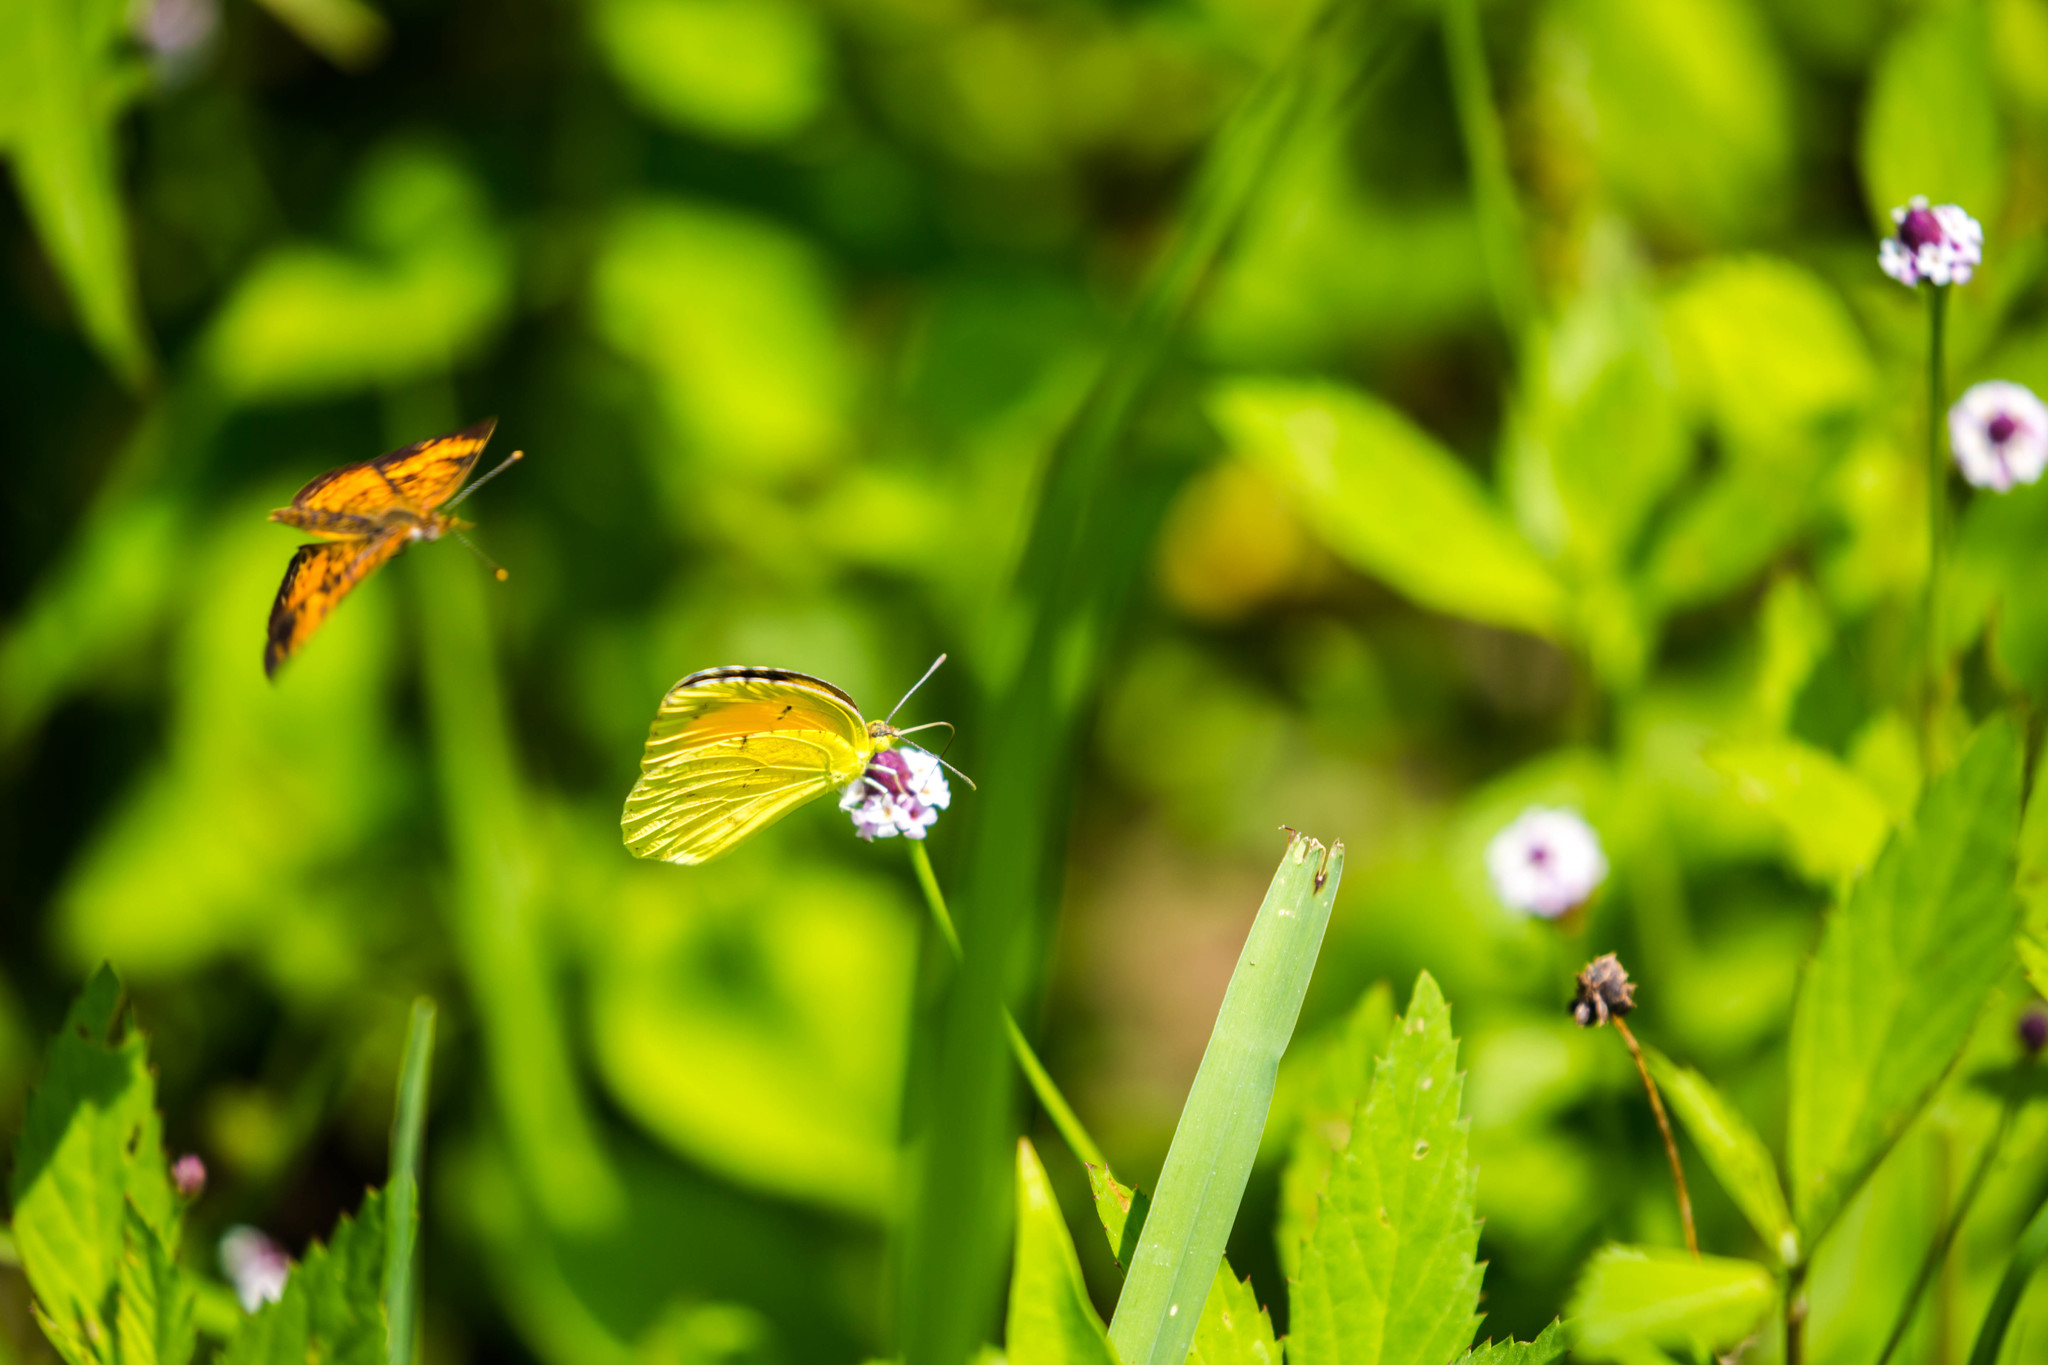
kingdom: Animalia
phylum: Arthropoda
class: Insecta
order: Lepidoptera
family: Pieridae
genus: Abaeis
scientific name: Abaeis nicippe
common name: Sleepy orange
